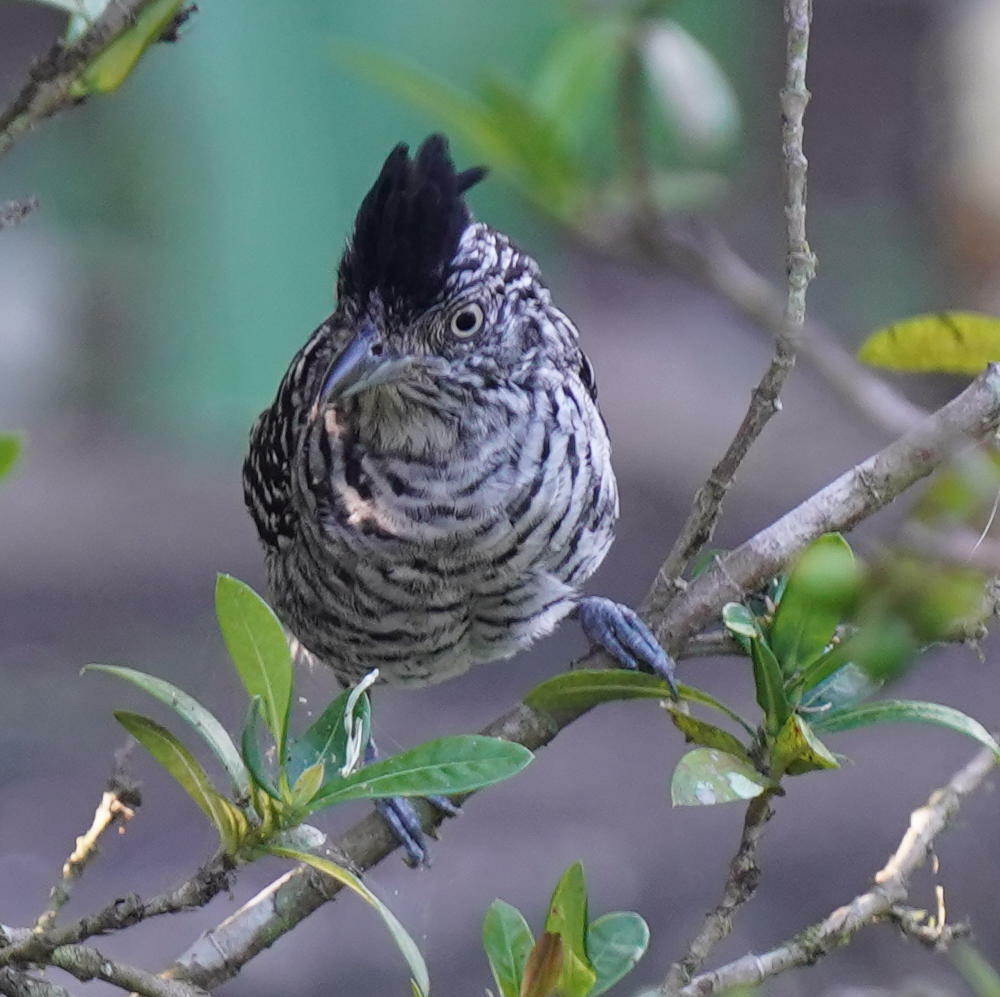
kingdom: Animalia
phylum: Chordata
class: Aves
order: Passeriformes
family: Thamnophilidae
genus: Thamnophilus
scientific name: Thamnophilus doliatus
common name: Barred antshrike
